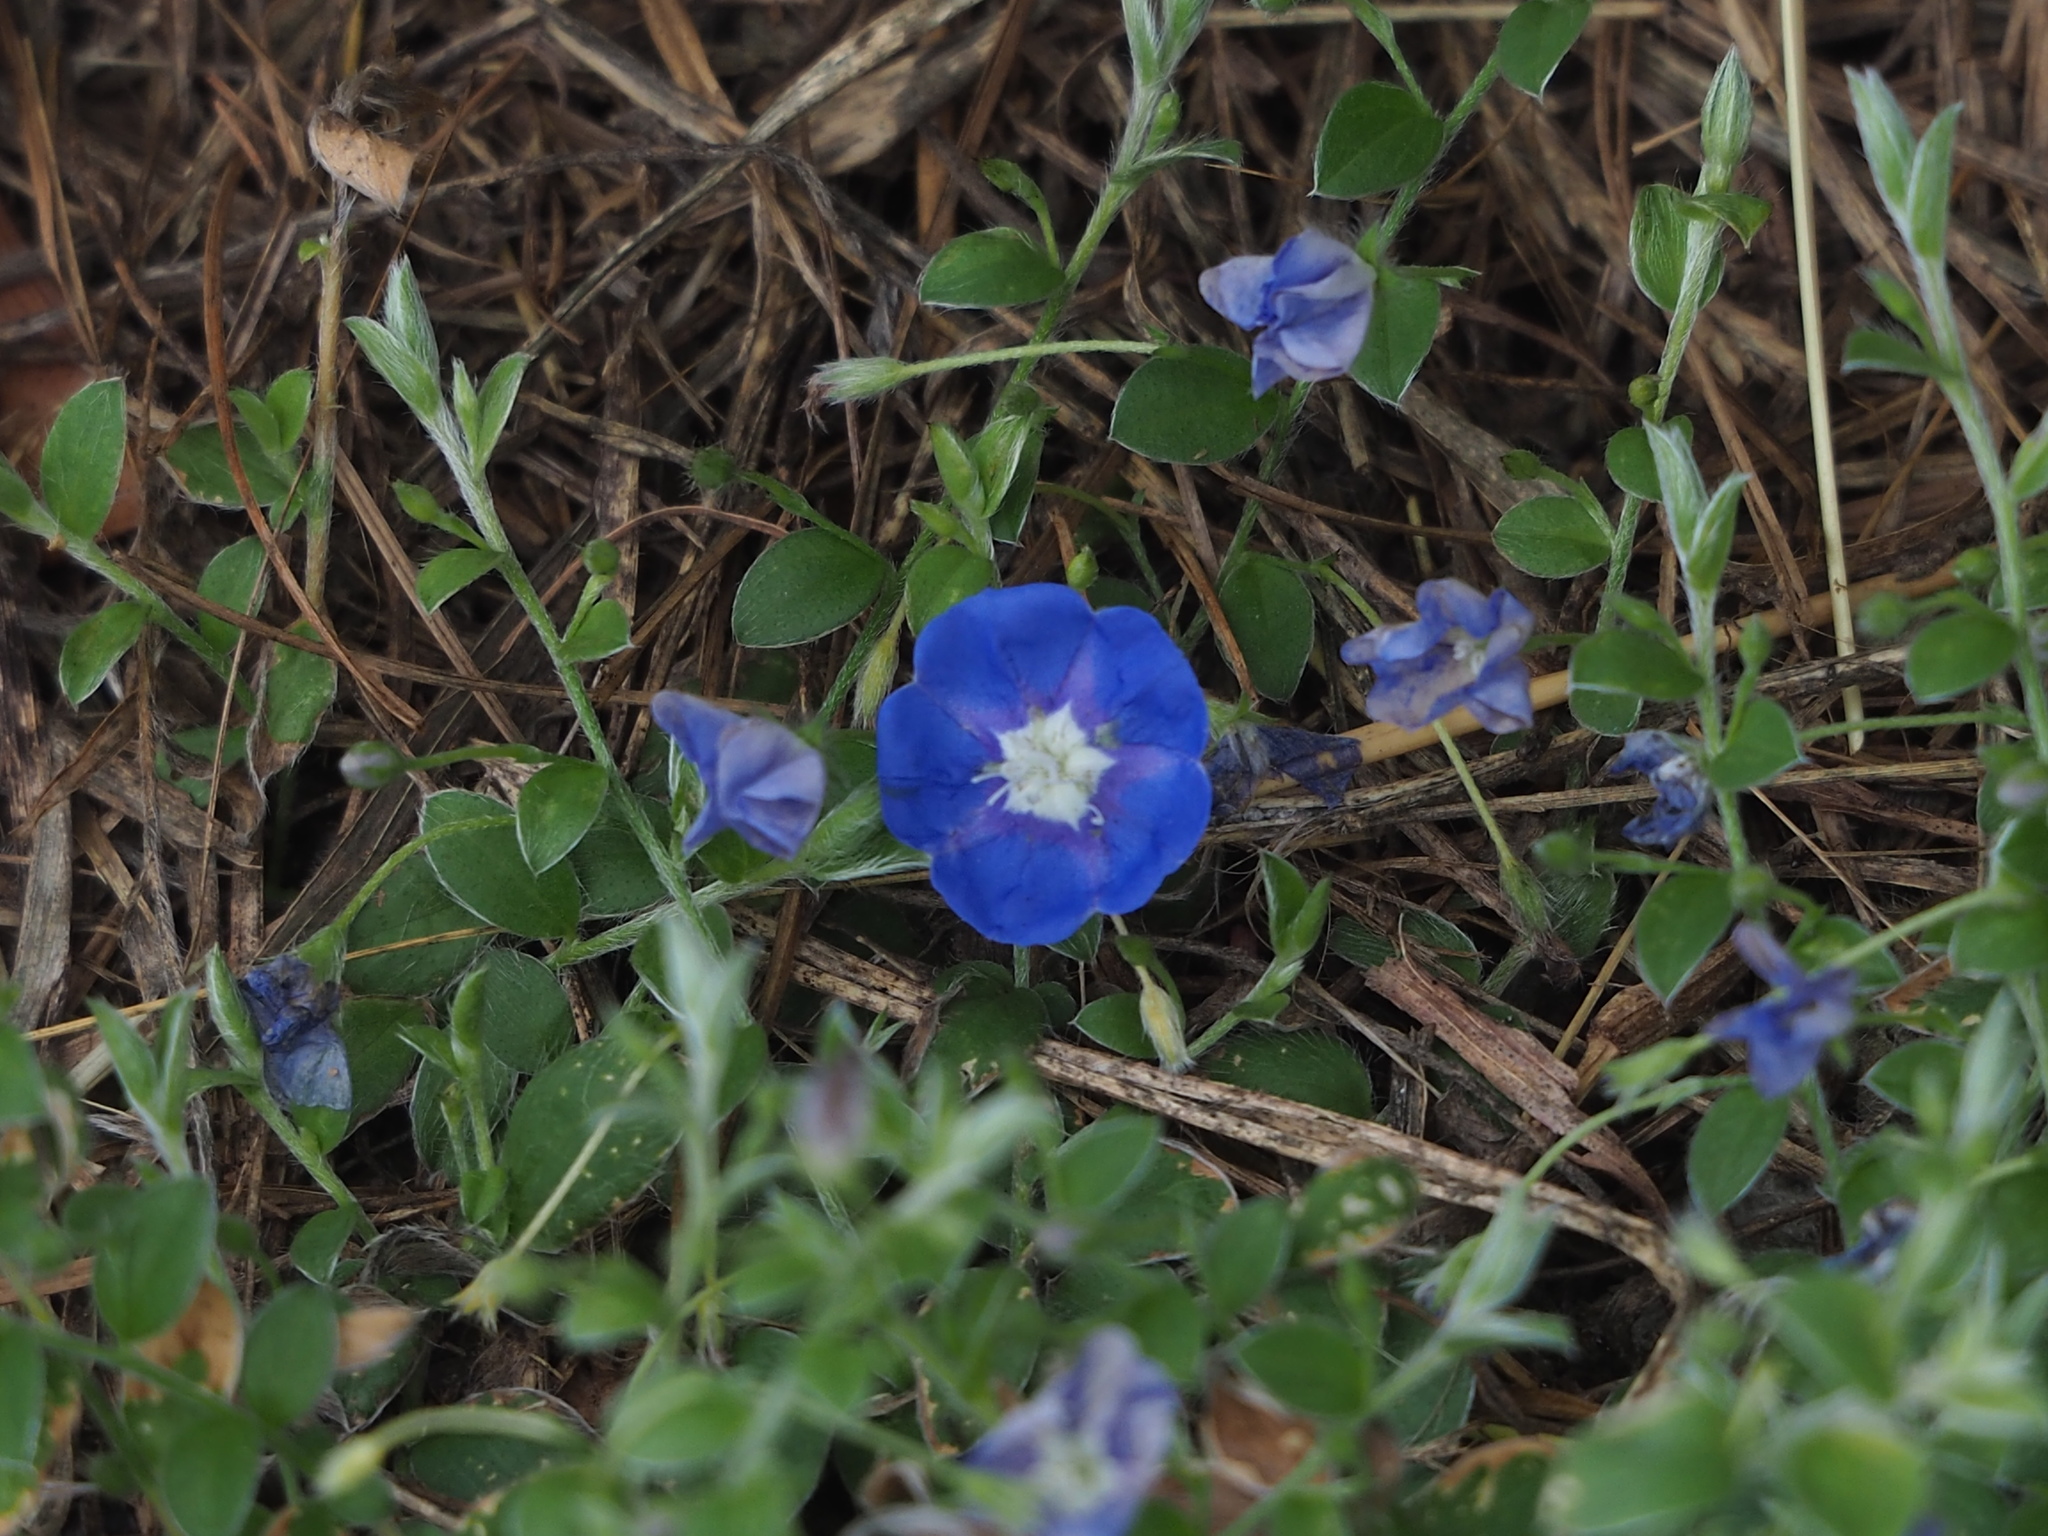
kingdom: Plantae
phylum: Tracheophyta
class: Magnoliopsida
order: Solanales
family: Convolvulaceae
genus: Evolvulus
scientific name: Evolvulus alsinoides
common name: Slender dwarf morning-glory
